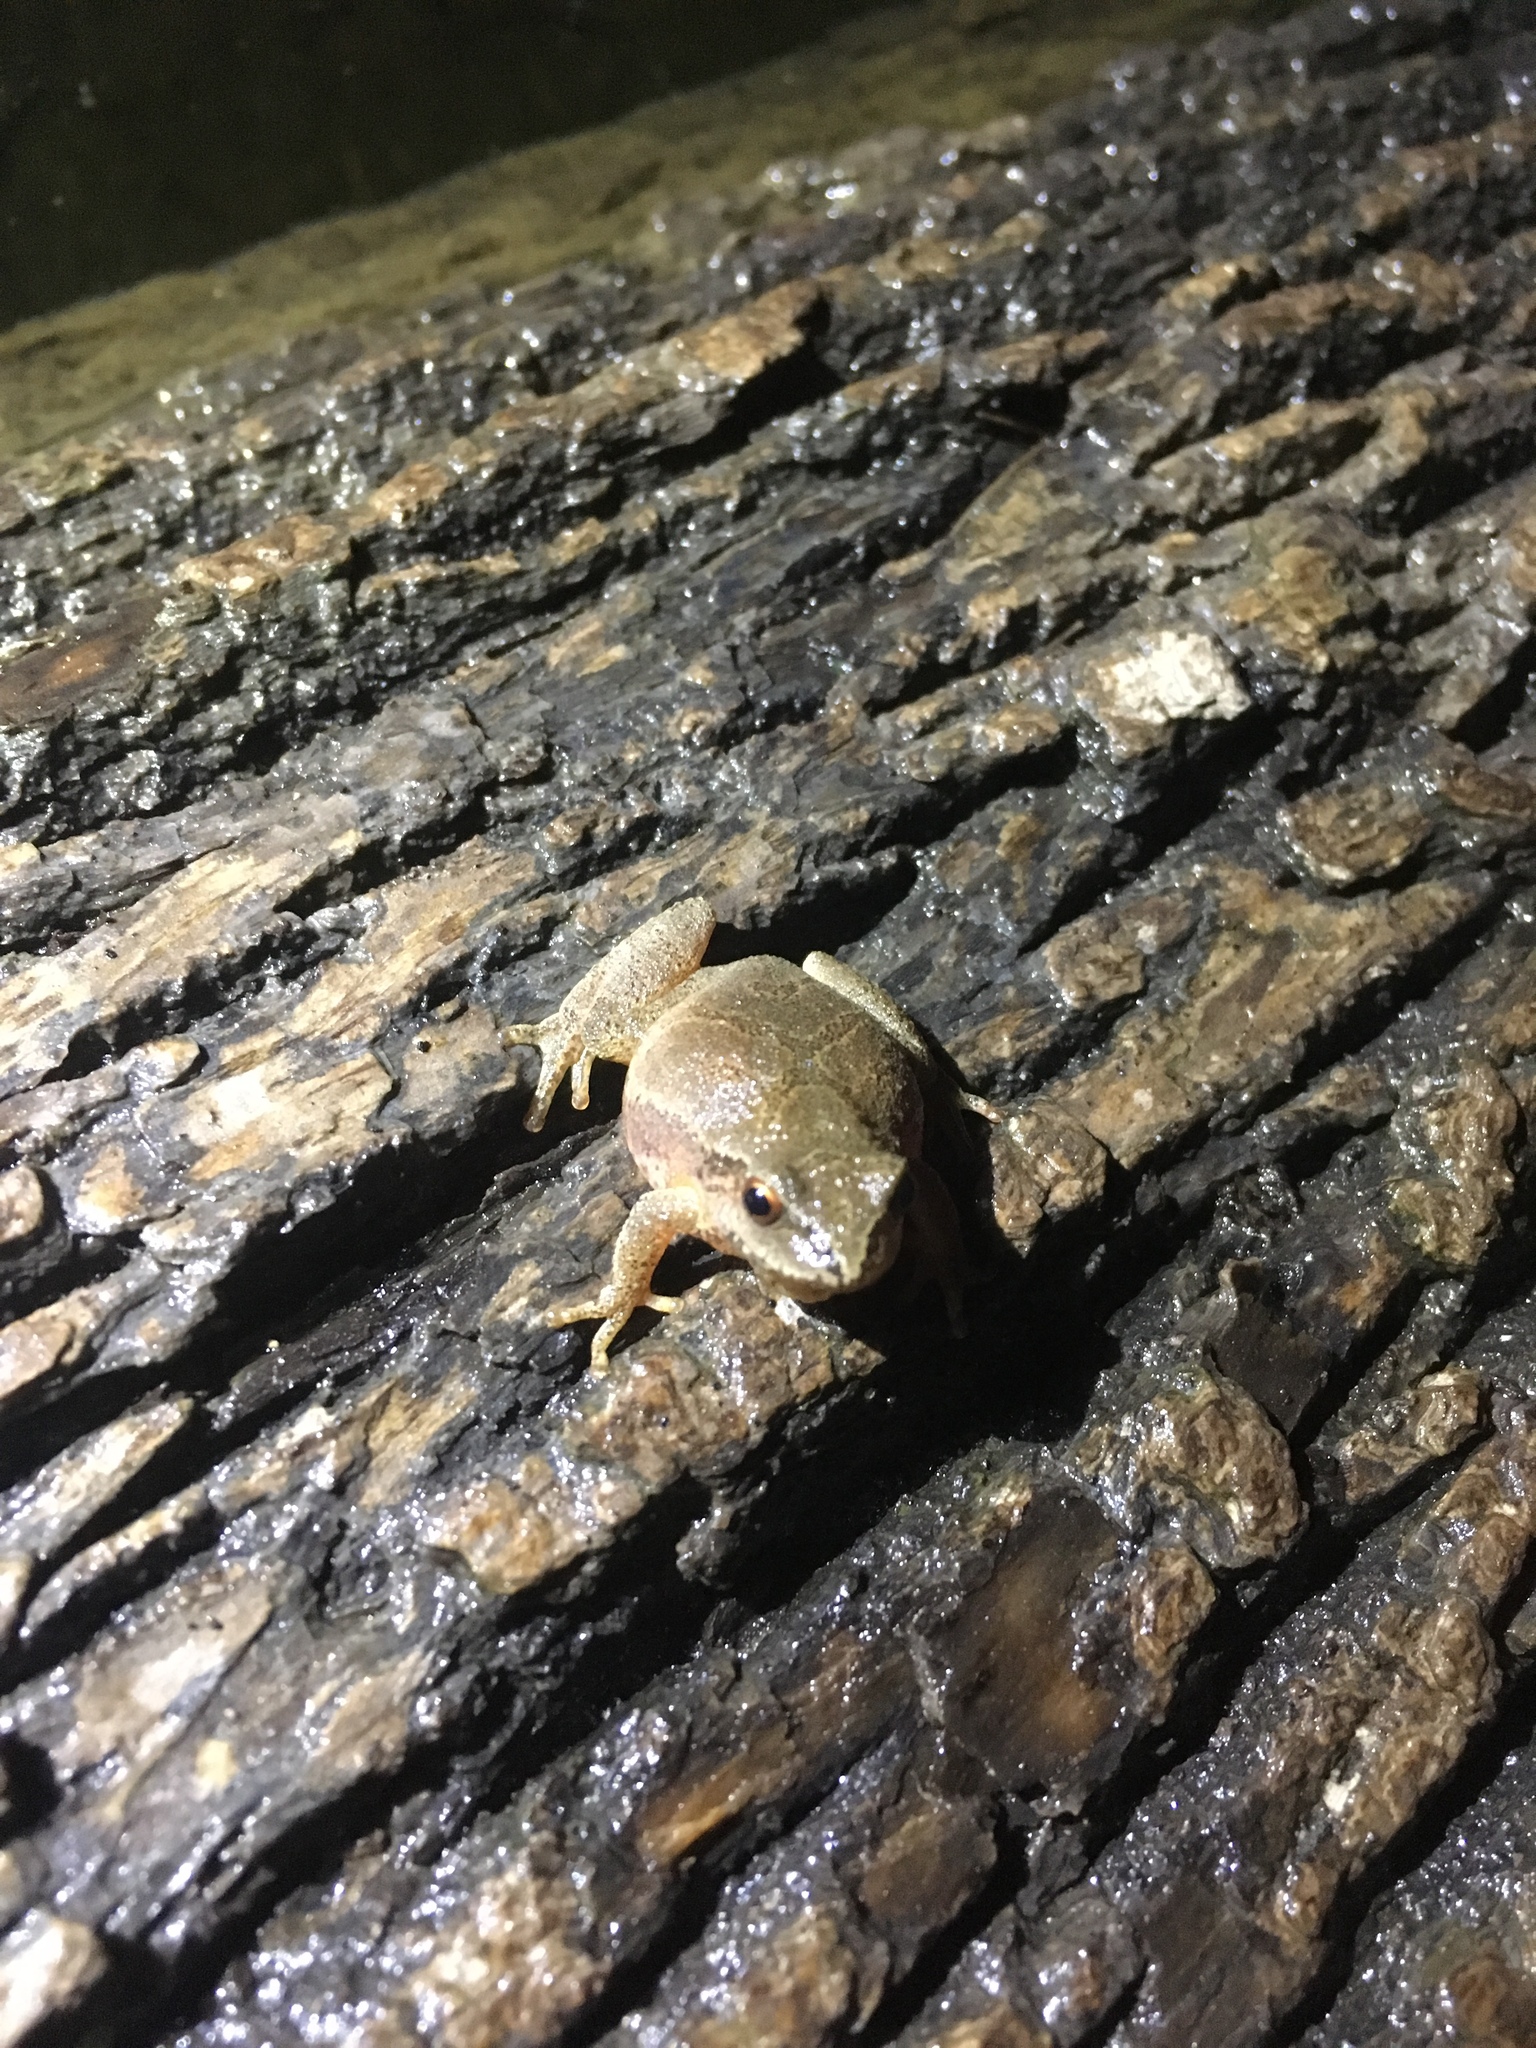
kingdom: Animalia
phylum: Chordata
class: Amphibia
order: Anura
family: Hylidae
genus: Pseudacris
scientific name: Pseudacris crucifer
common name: Spring peeper
